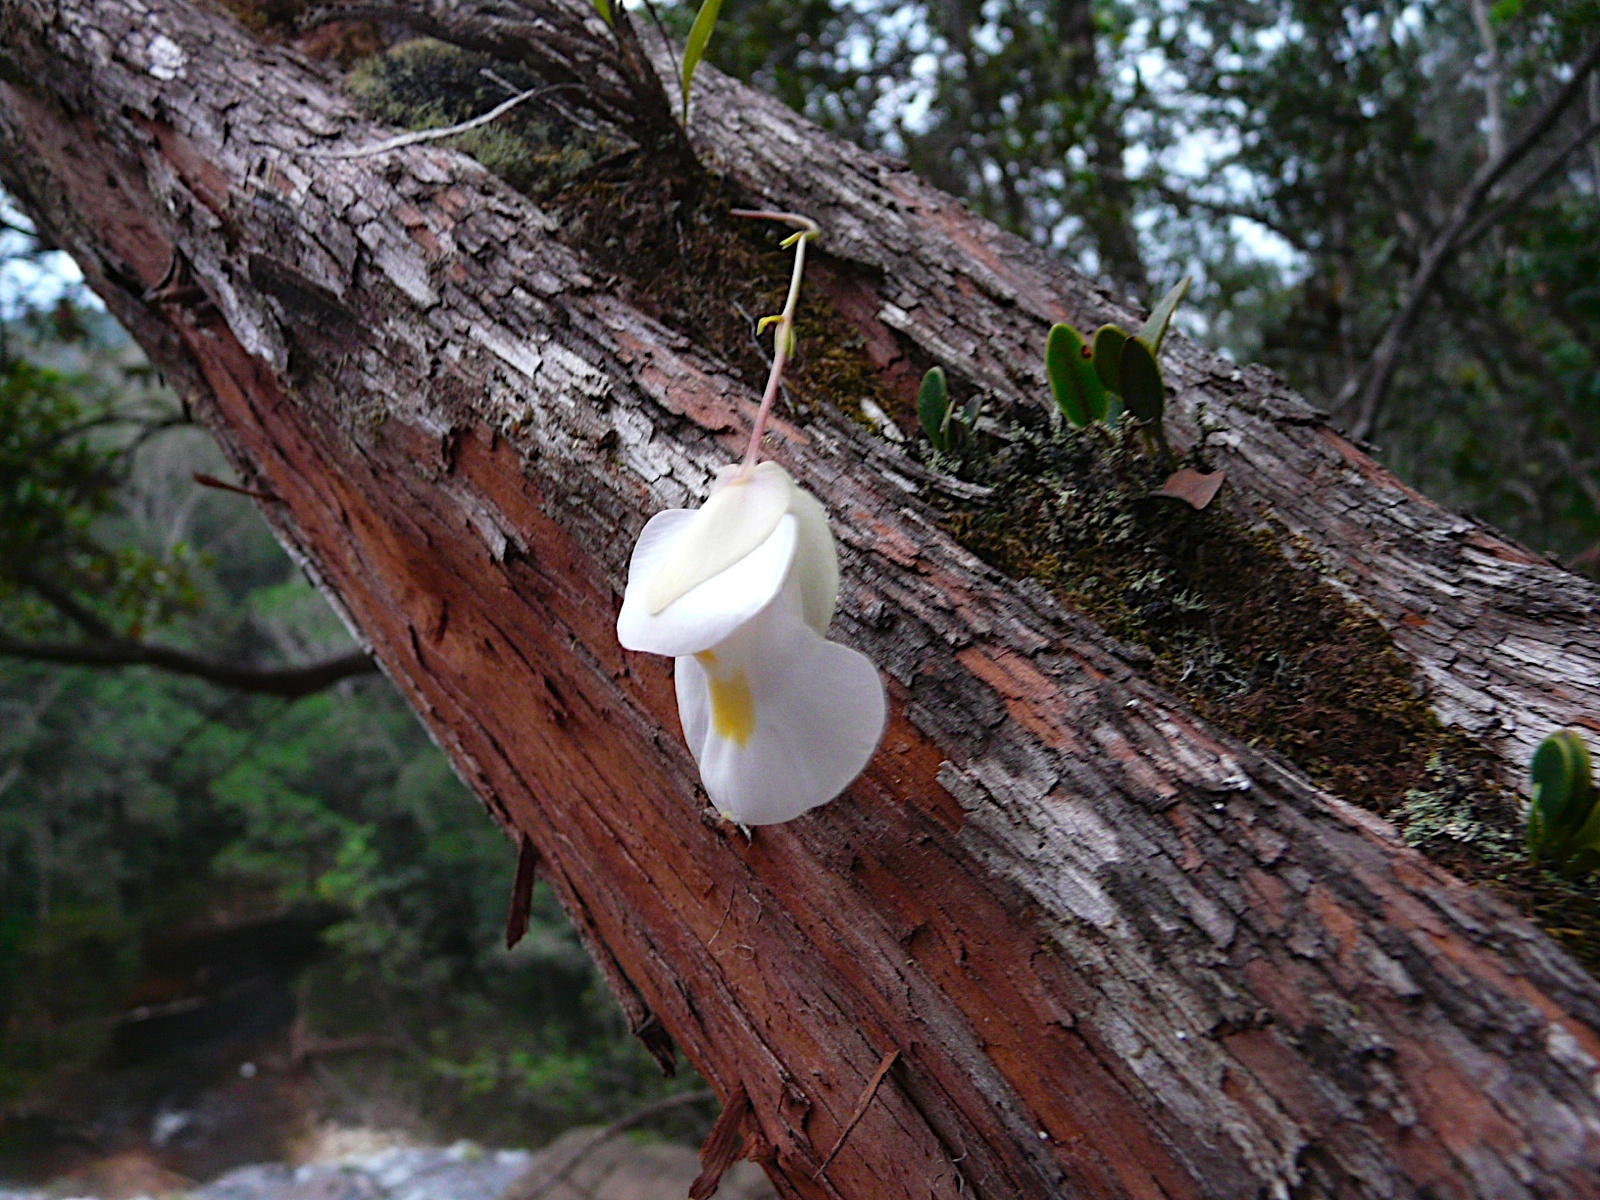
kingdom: Plantae
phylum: Tracheophyta
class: Magnoliopsida
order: Lamiales
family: Lentibulariaceae
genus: Utricularia
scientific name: Utricularia alpina
